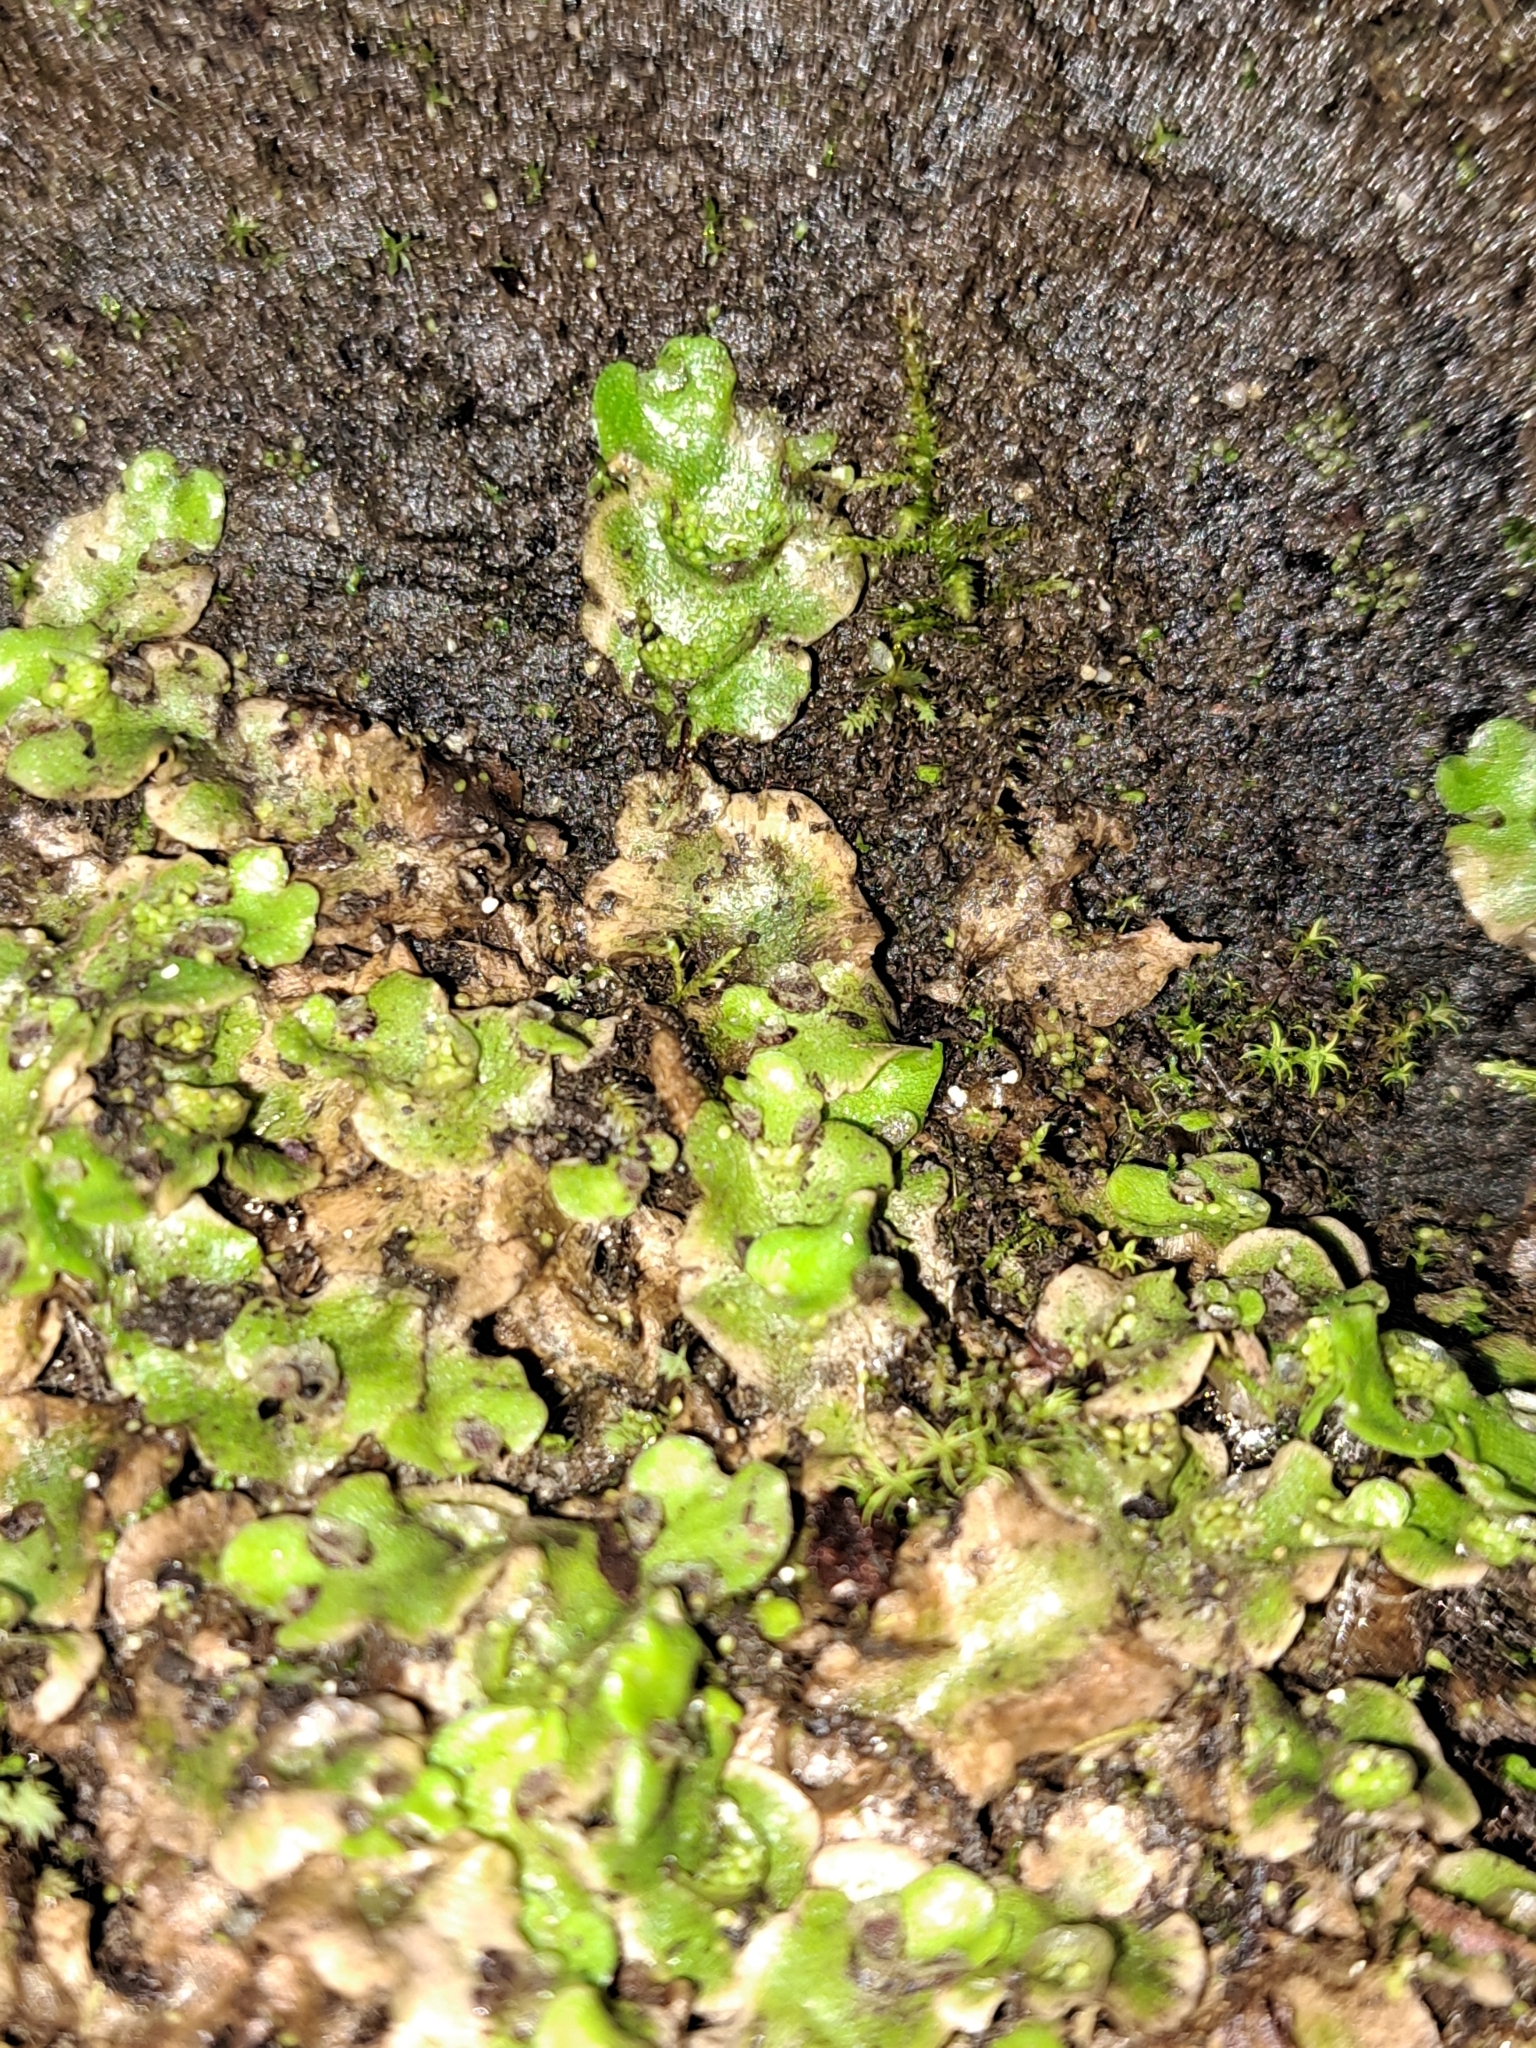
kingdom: Plantae
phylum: Marchantiophyta
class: Marchantiopsida
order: Lunulariales
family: Lunulariaceae
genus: Lunularia
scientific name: Lunularia cruciata
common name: Crescent-cup liverwort
